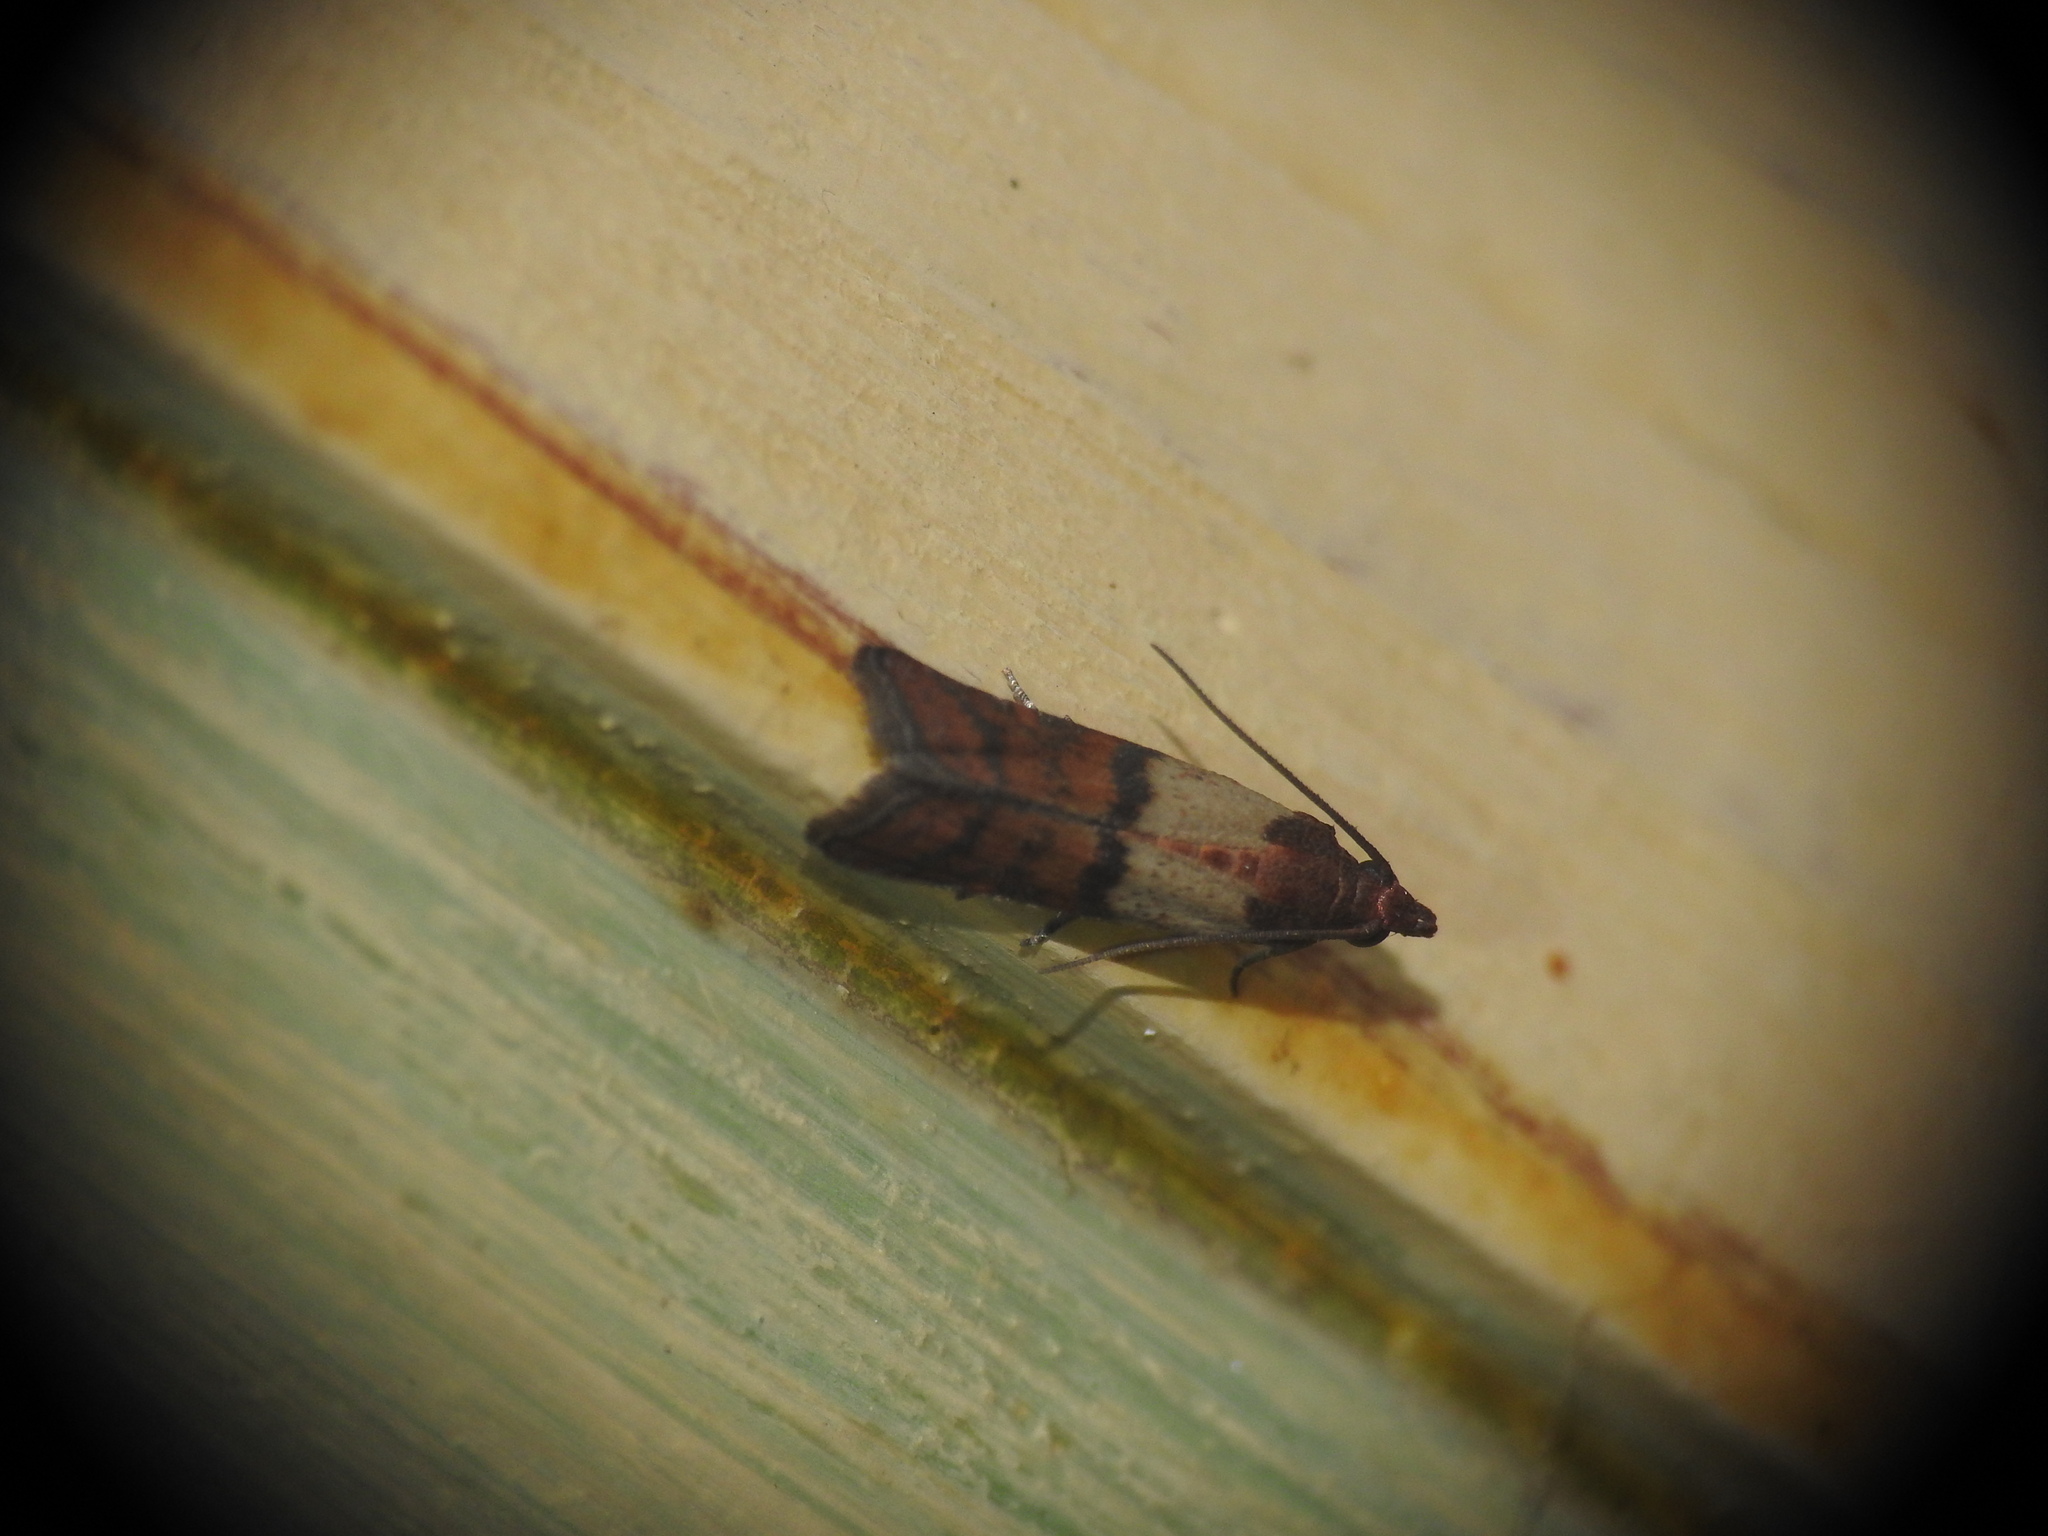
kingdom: Animalia
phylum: Arthropoda
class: Insecta
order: Lepidoptera
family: Pyralidae
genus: Plodia
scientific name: Plodia interpunctella
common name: Indian meal moth
